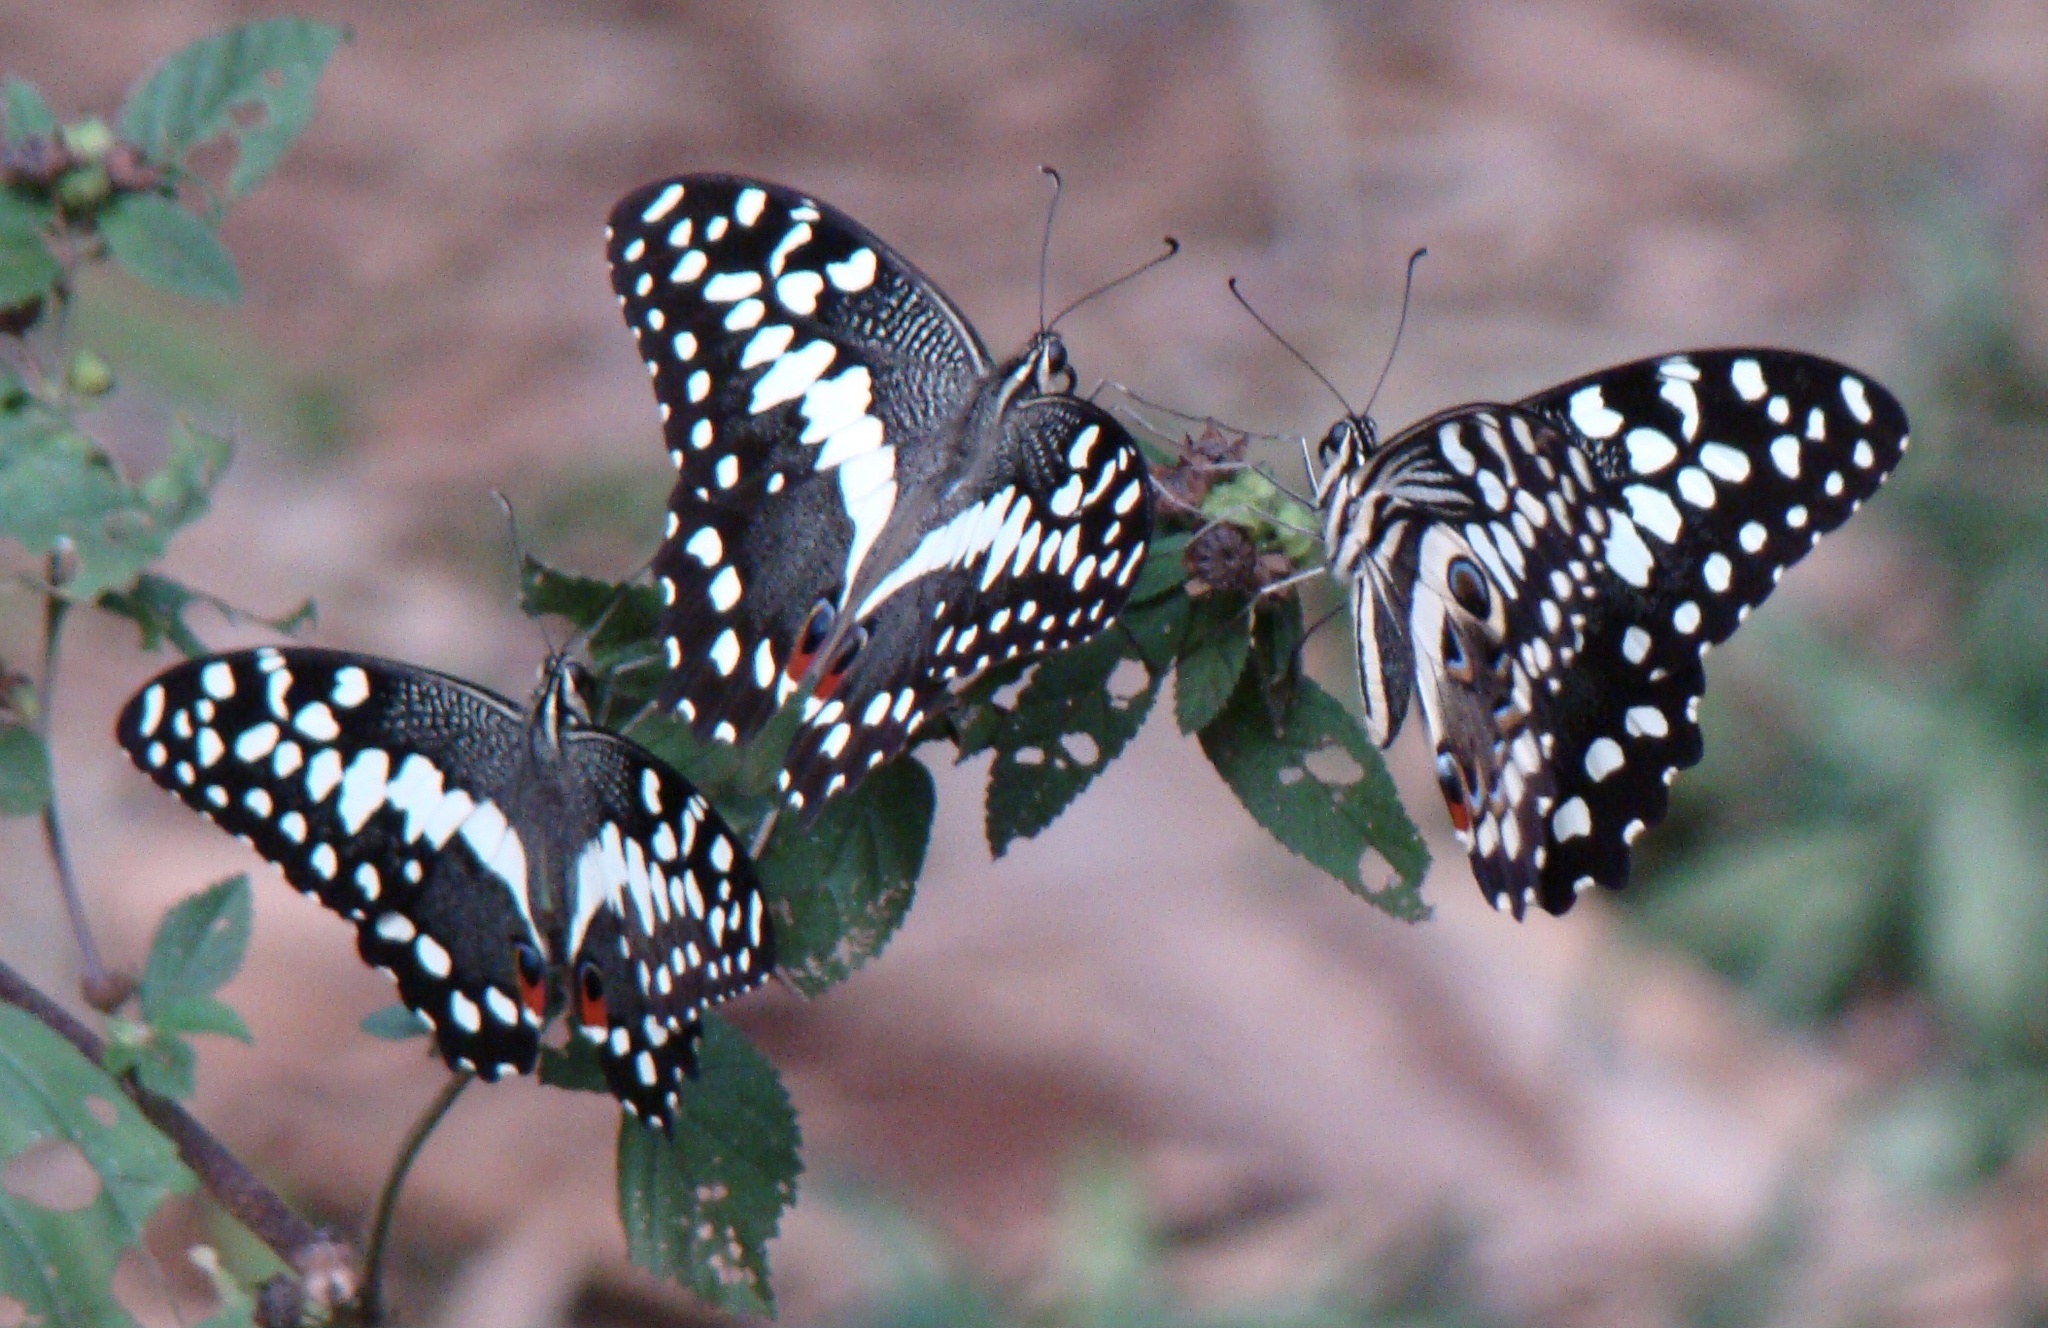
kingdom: Animalia
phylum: Arthropoda
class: Insecta
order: Lepidoptera
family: Papilionidae
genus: Papilio
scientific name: Papilio demodocus
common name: Christmas butterfly
